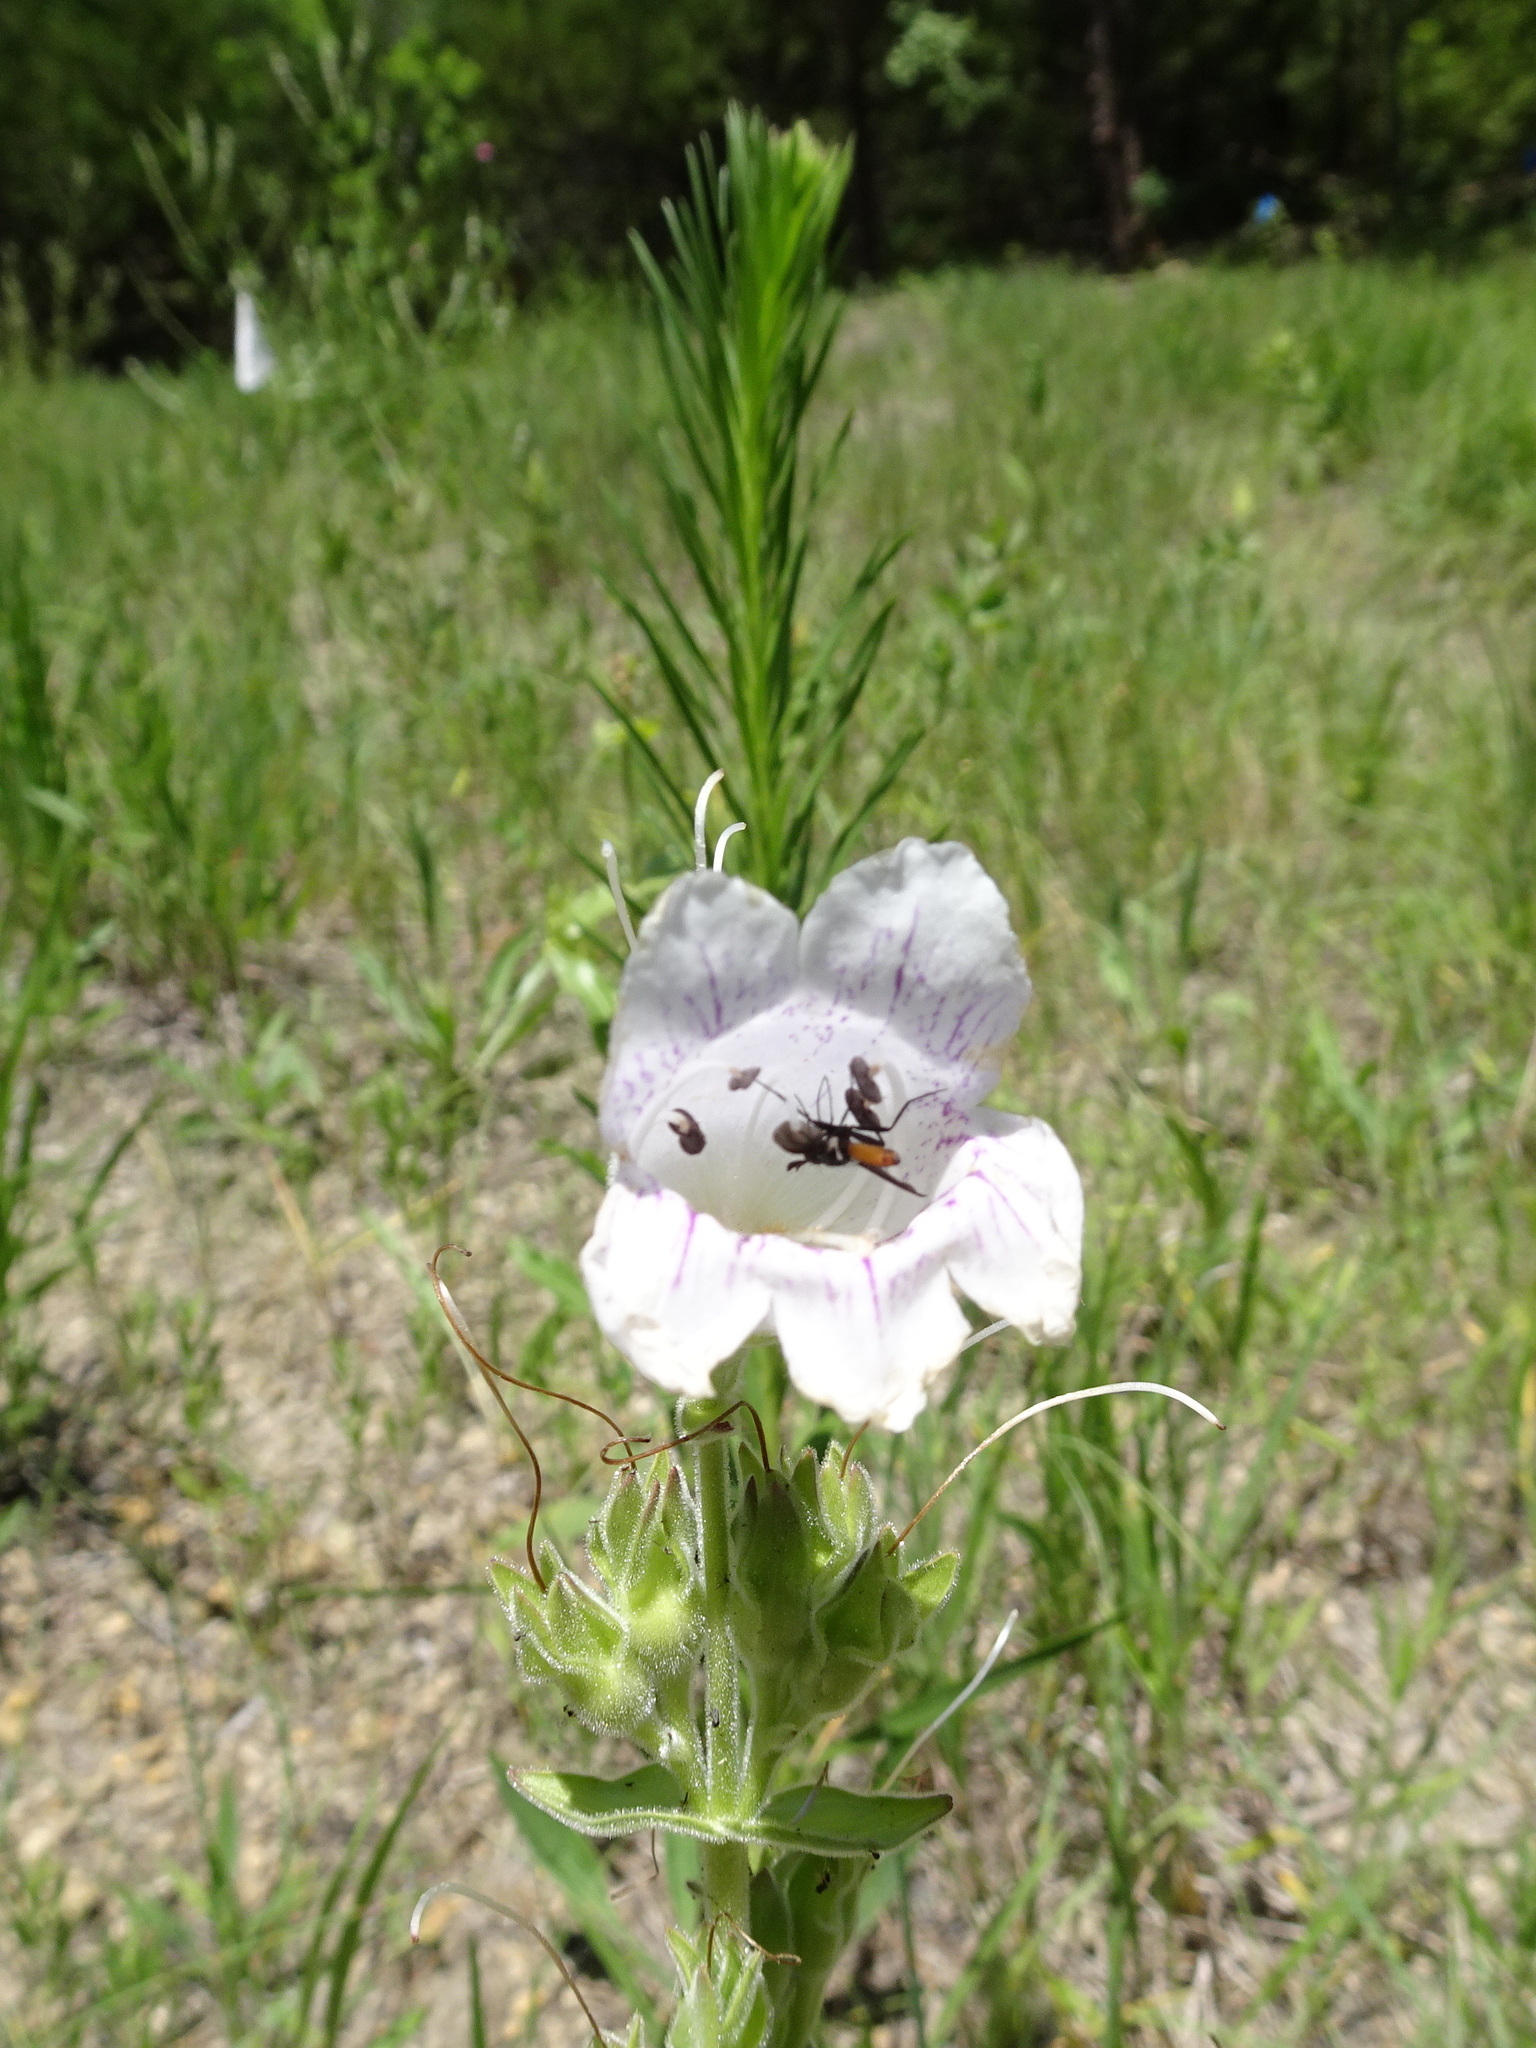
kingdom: Plantae
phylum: Tracheophyta
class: Magnoliopsida
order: Lamiales
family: Plantaginaceae
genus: Penstemon
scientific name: Penstemon cobaea
